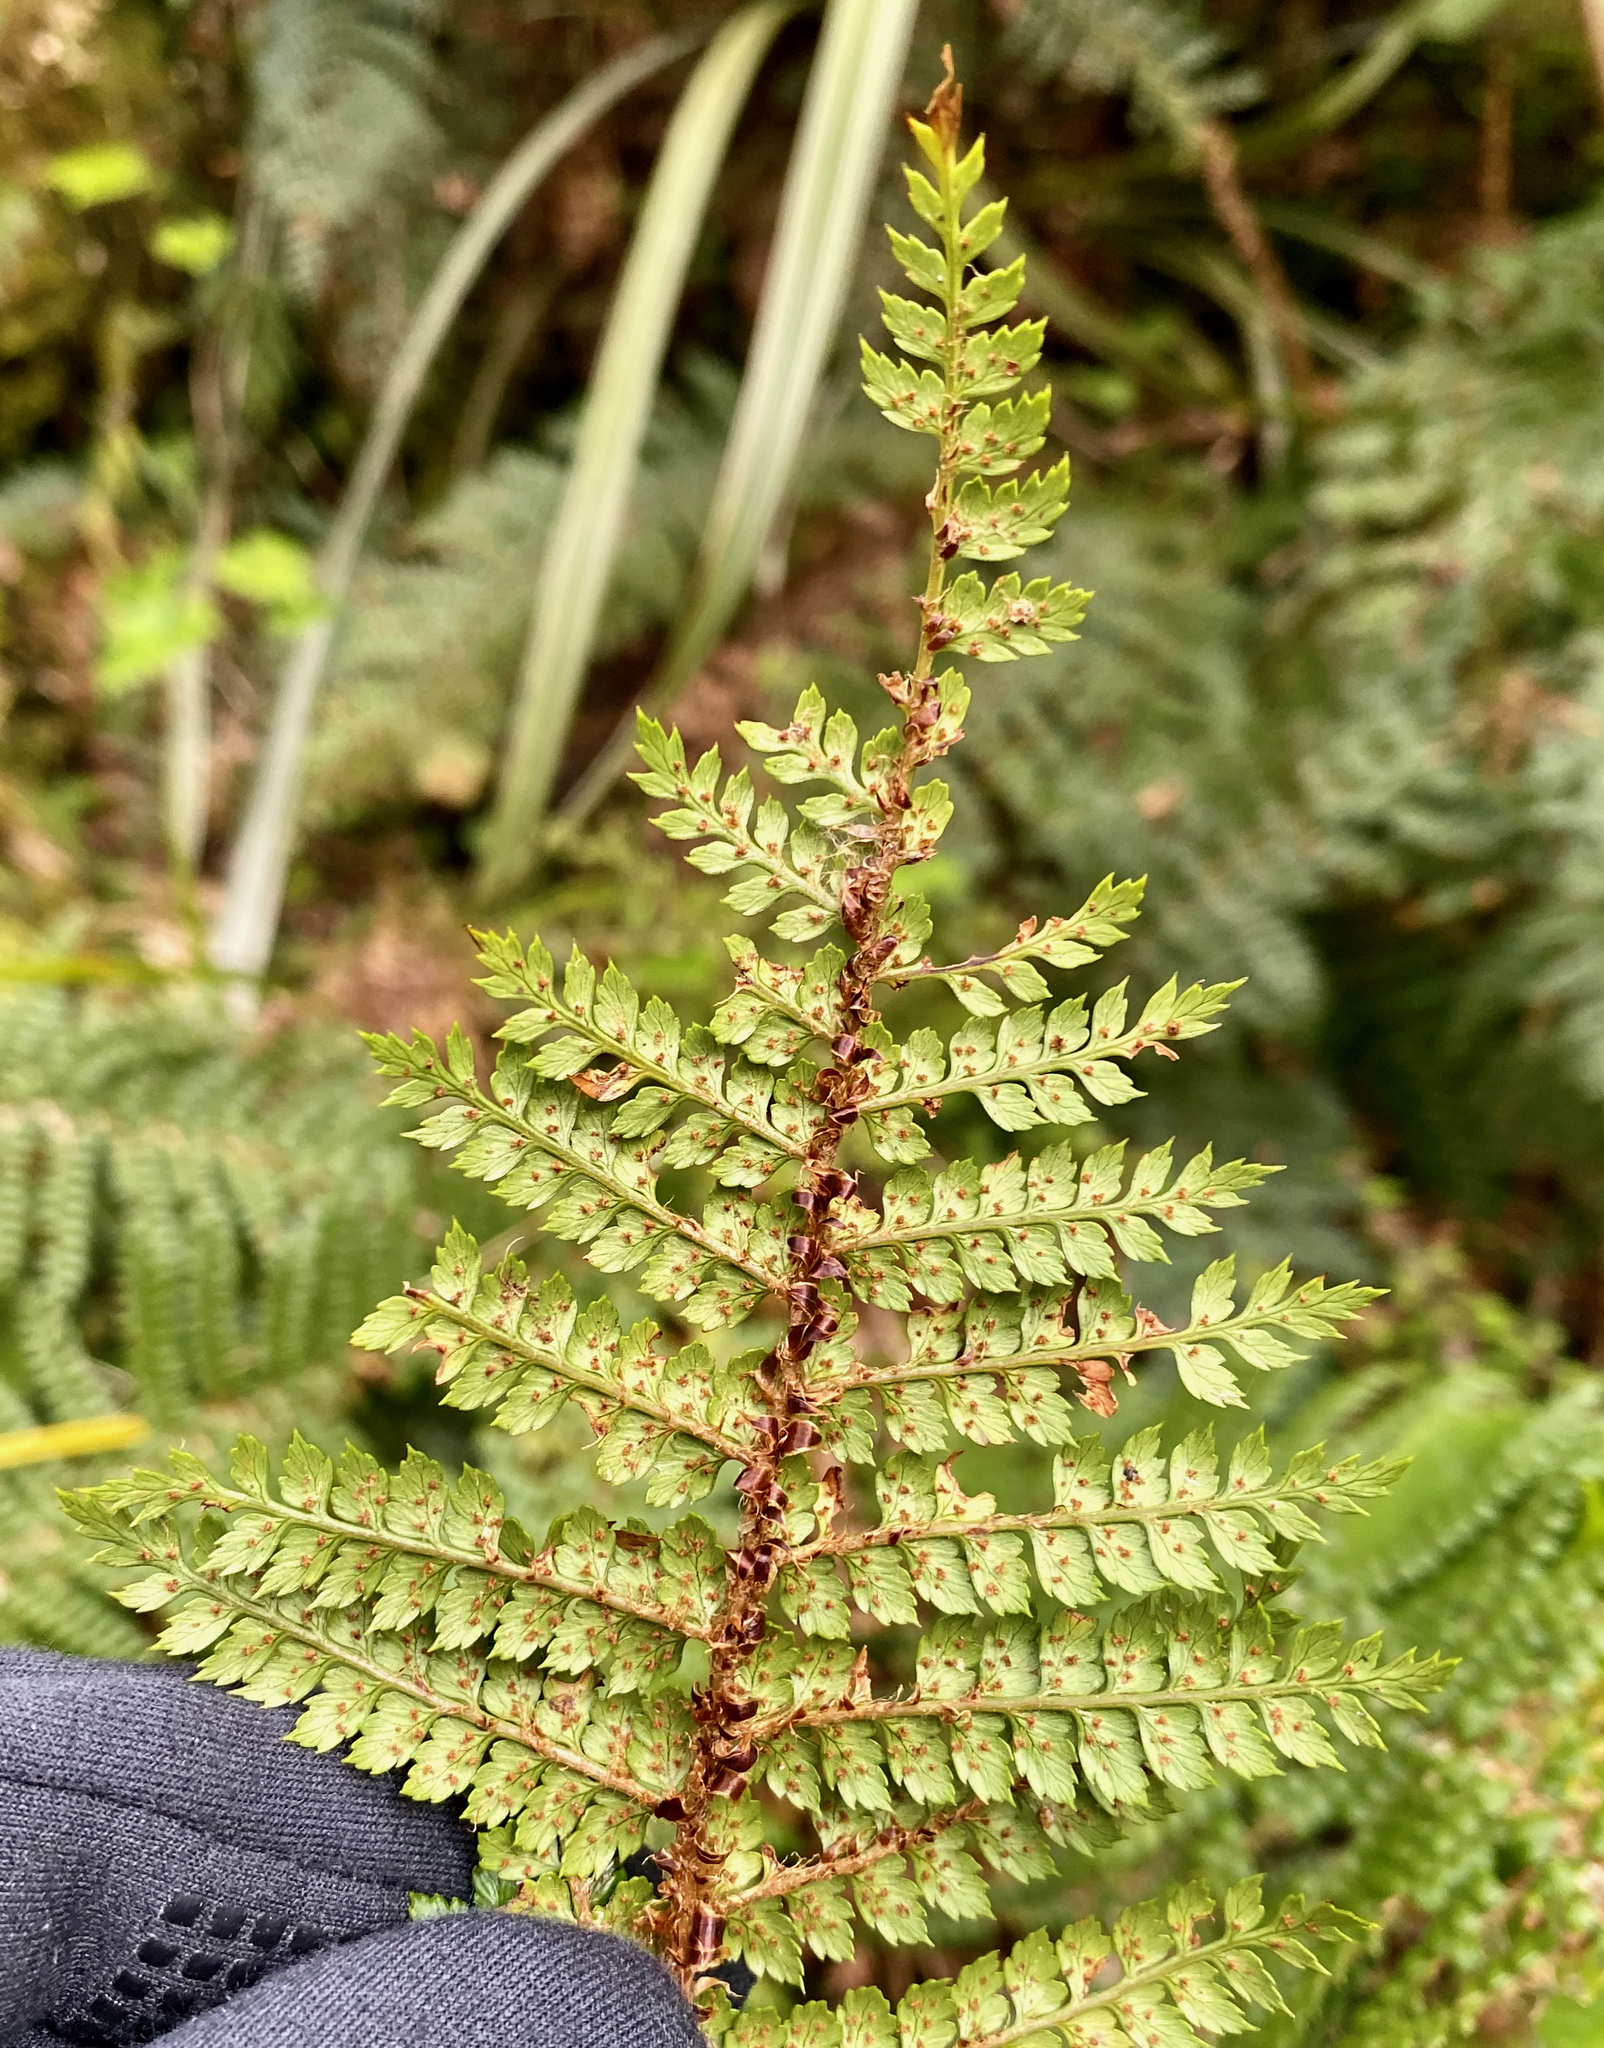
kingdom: Plantae
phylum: Tracheophyta
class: Polypodiopsida
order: Polypodiales
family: Dryopteridaceae
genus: Polystichum
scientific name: Polystichum vestitum
